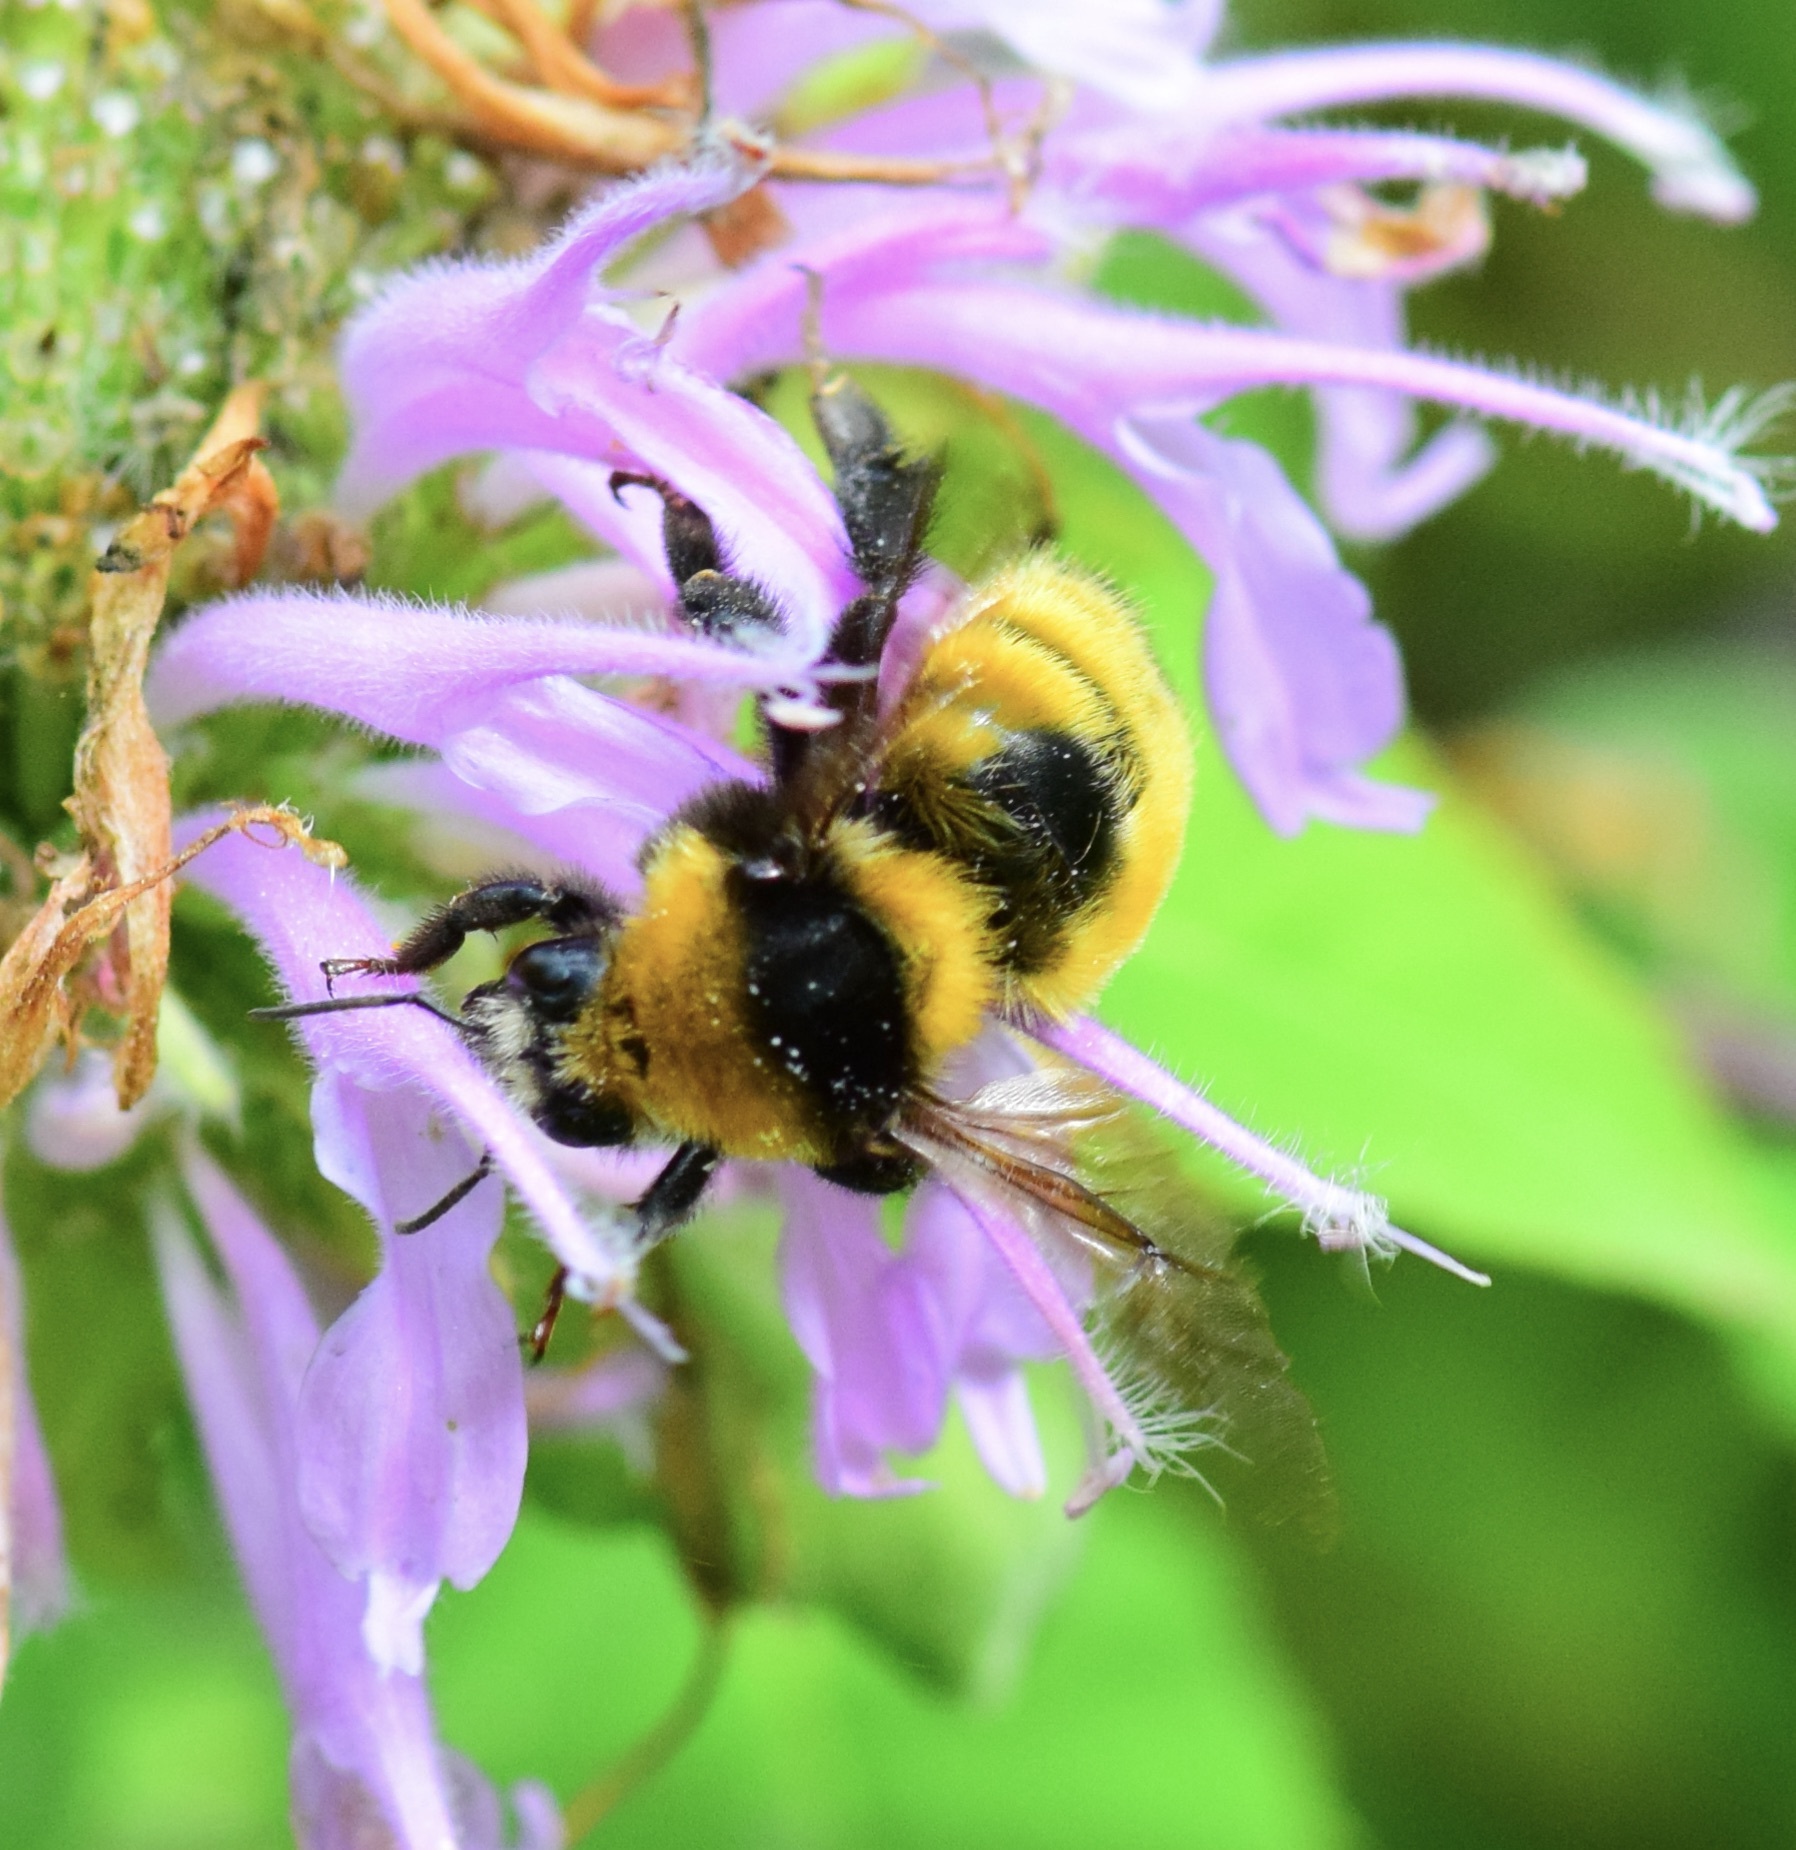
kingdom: Animalia
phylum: Arthropoda
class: Insecta
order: Hymenoptera
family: Apidae
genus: Bombus
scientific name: Bombus borealis
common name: Northern amber bumble bee
